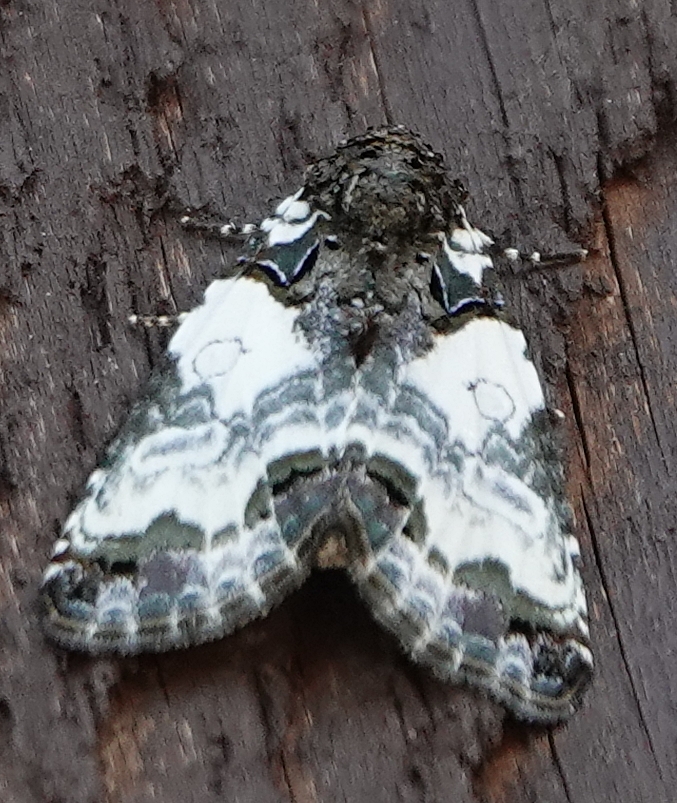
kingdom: Animalia
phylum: Arthropoda
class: Insecta
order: Lepidoptera
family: Noctuidae
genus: Cerma
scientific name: Cerma cerintha
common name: Tufted bird-dropping moth
